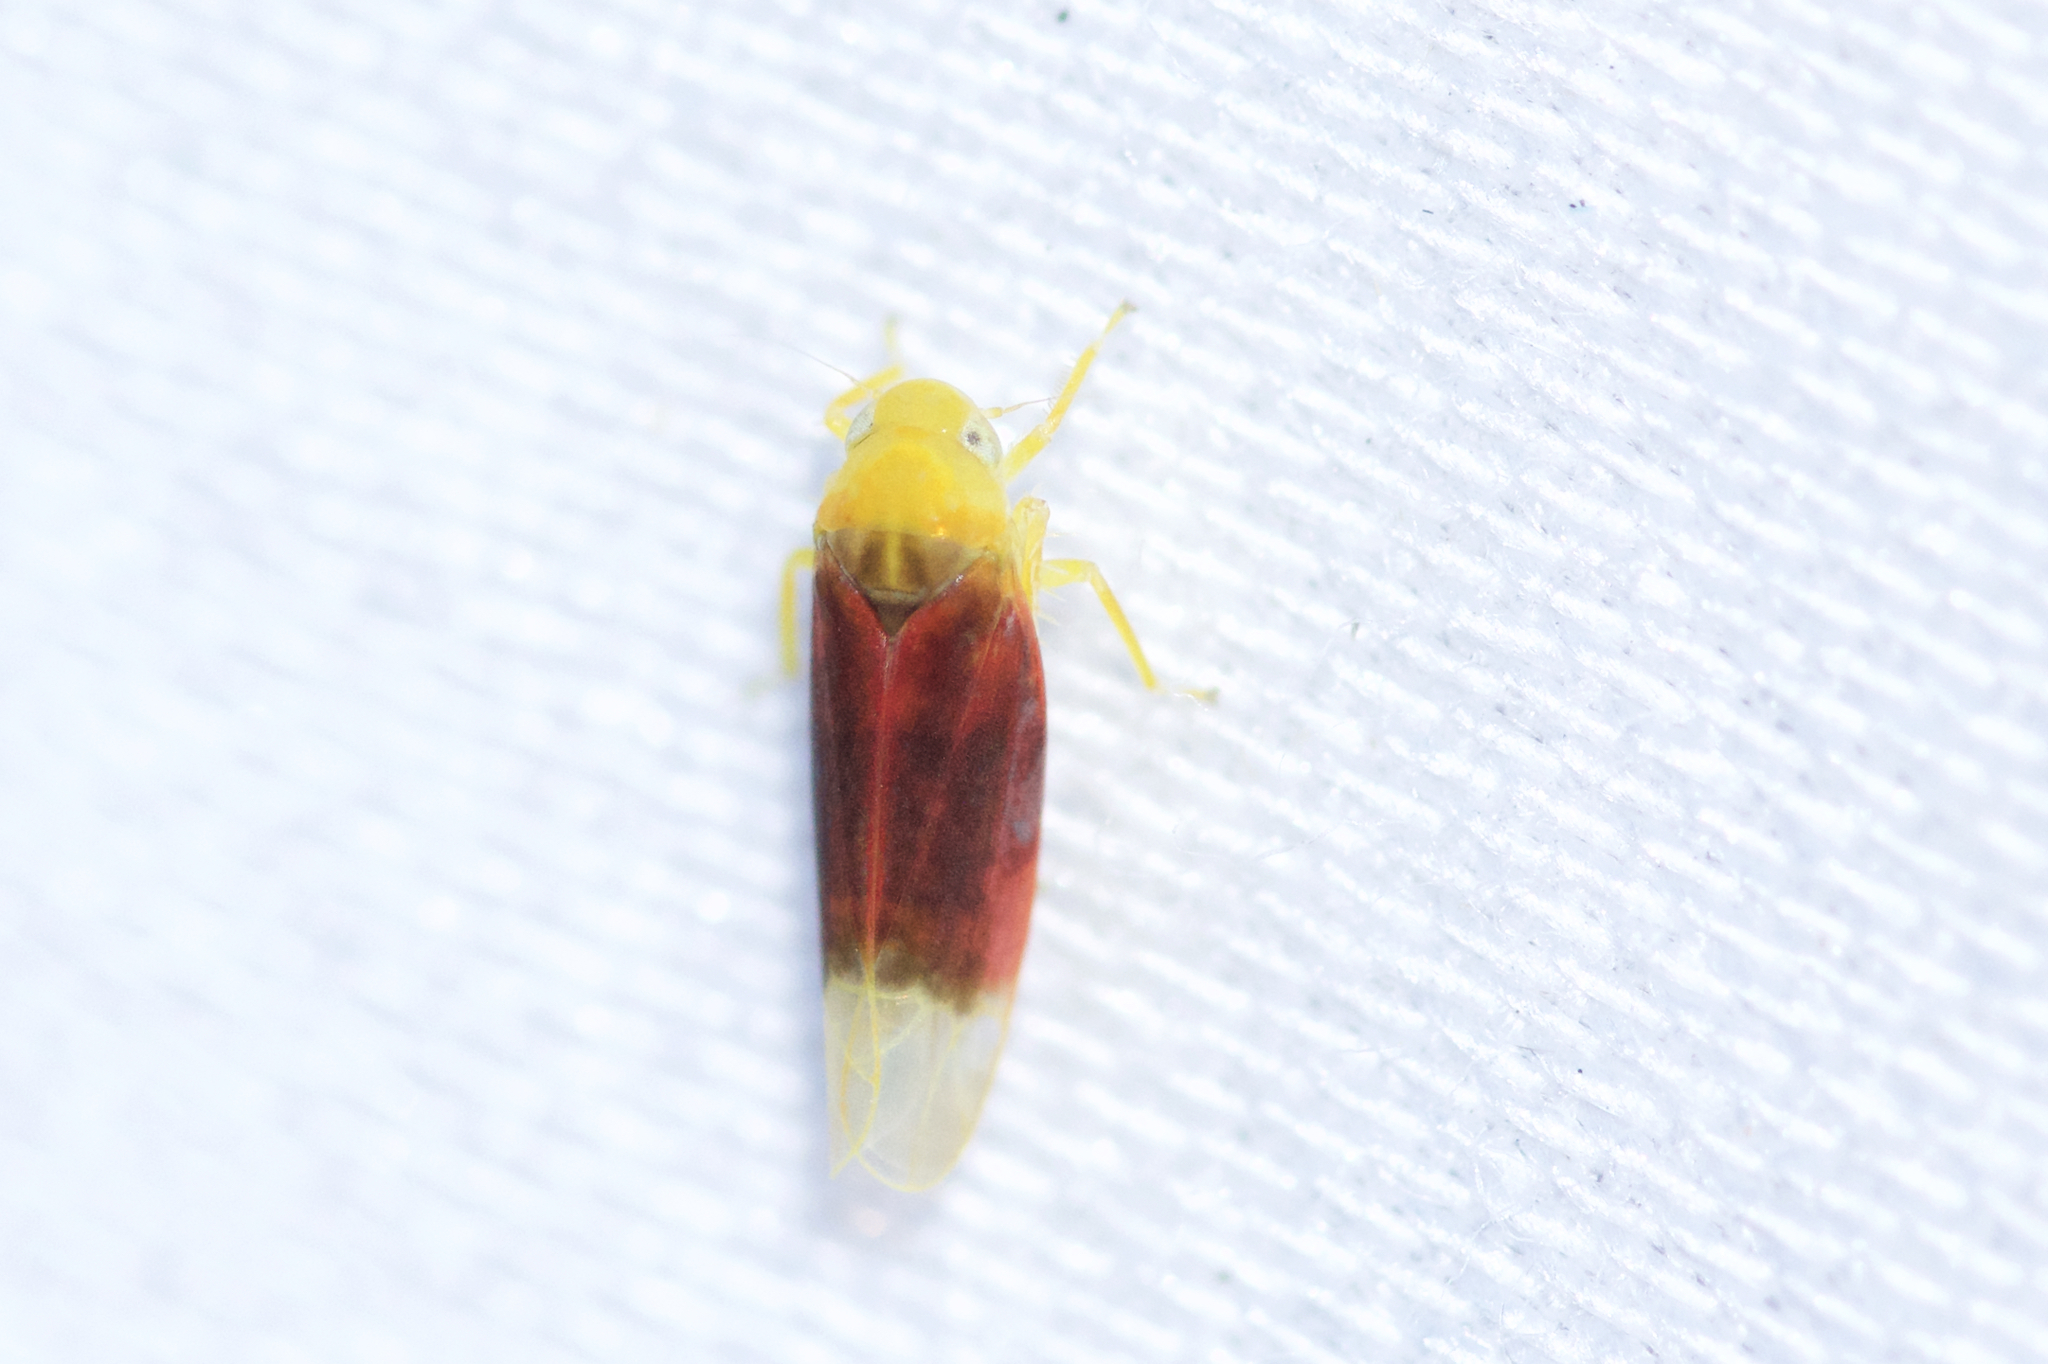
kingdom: Animalia
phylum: Arthropoda
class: Insecta
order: Hemiptera
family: Cicadellidae
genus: Ossiannilssonola
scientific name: Ossiannilssonola tunicarubra
